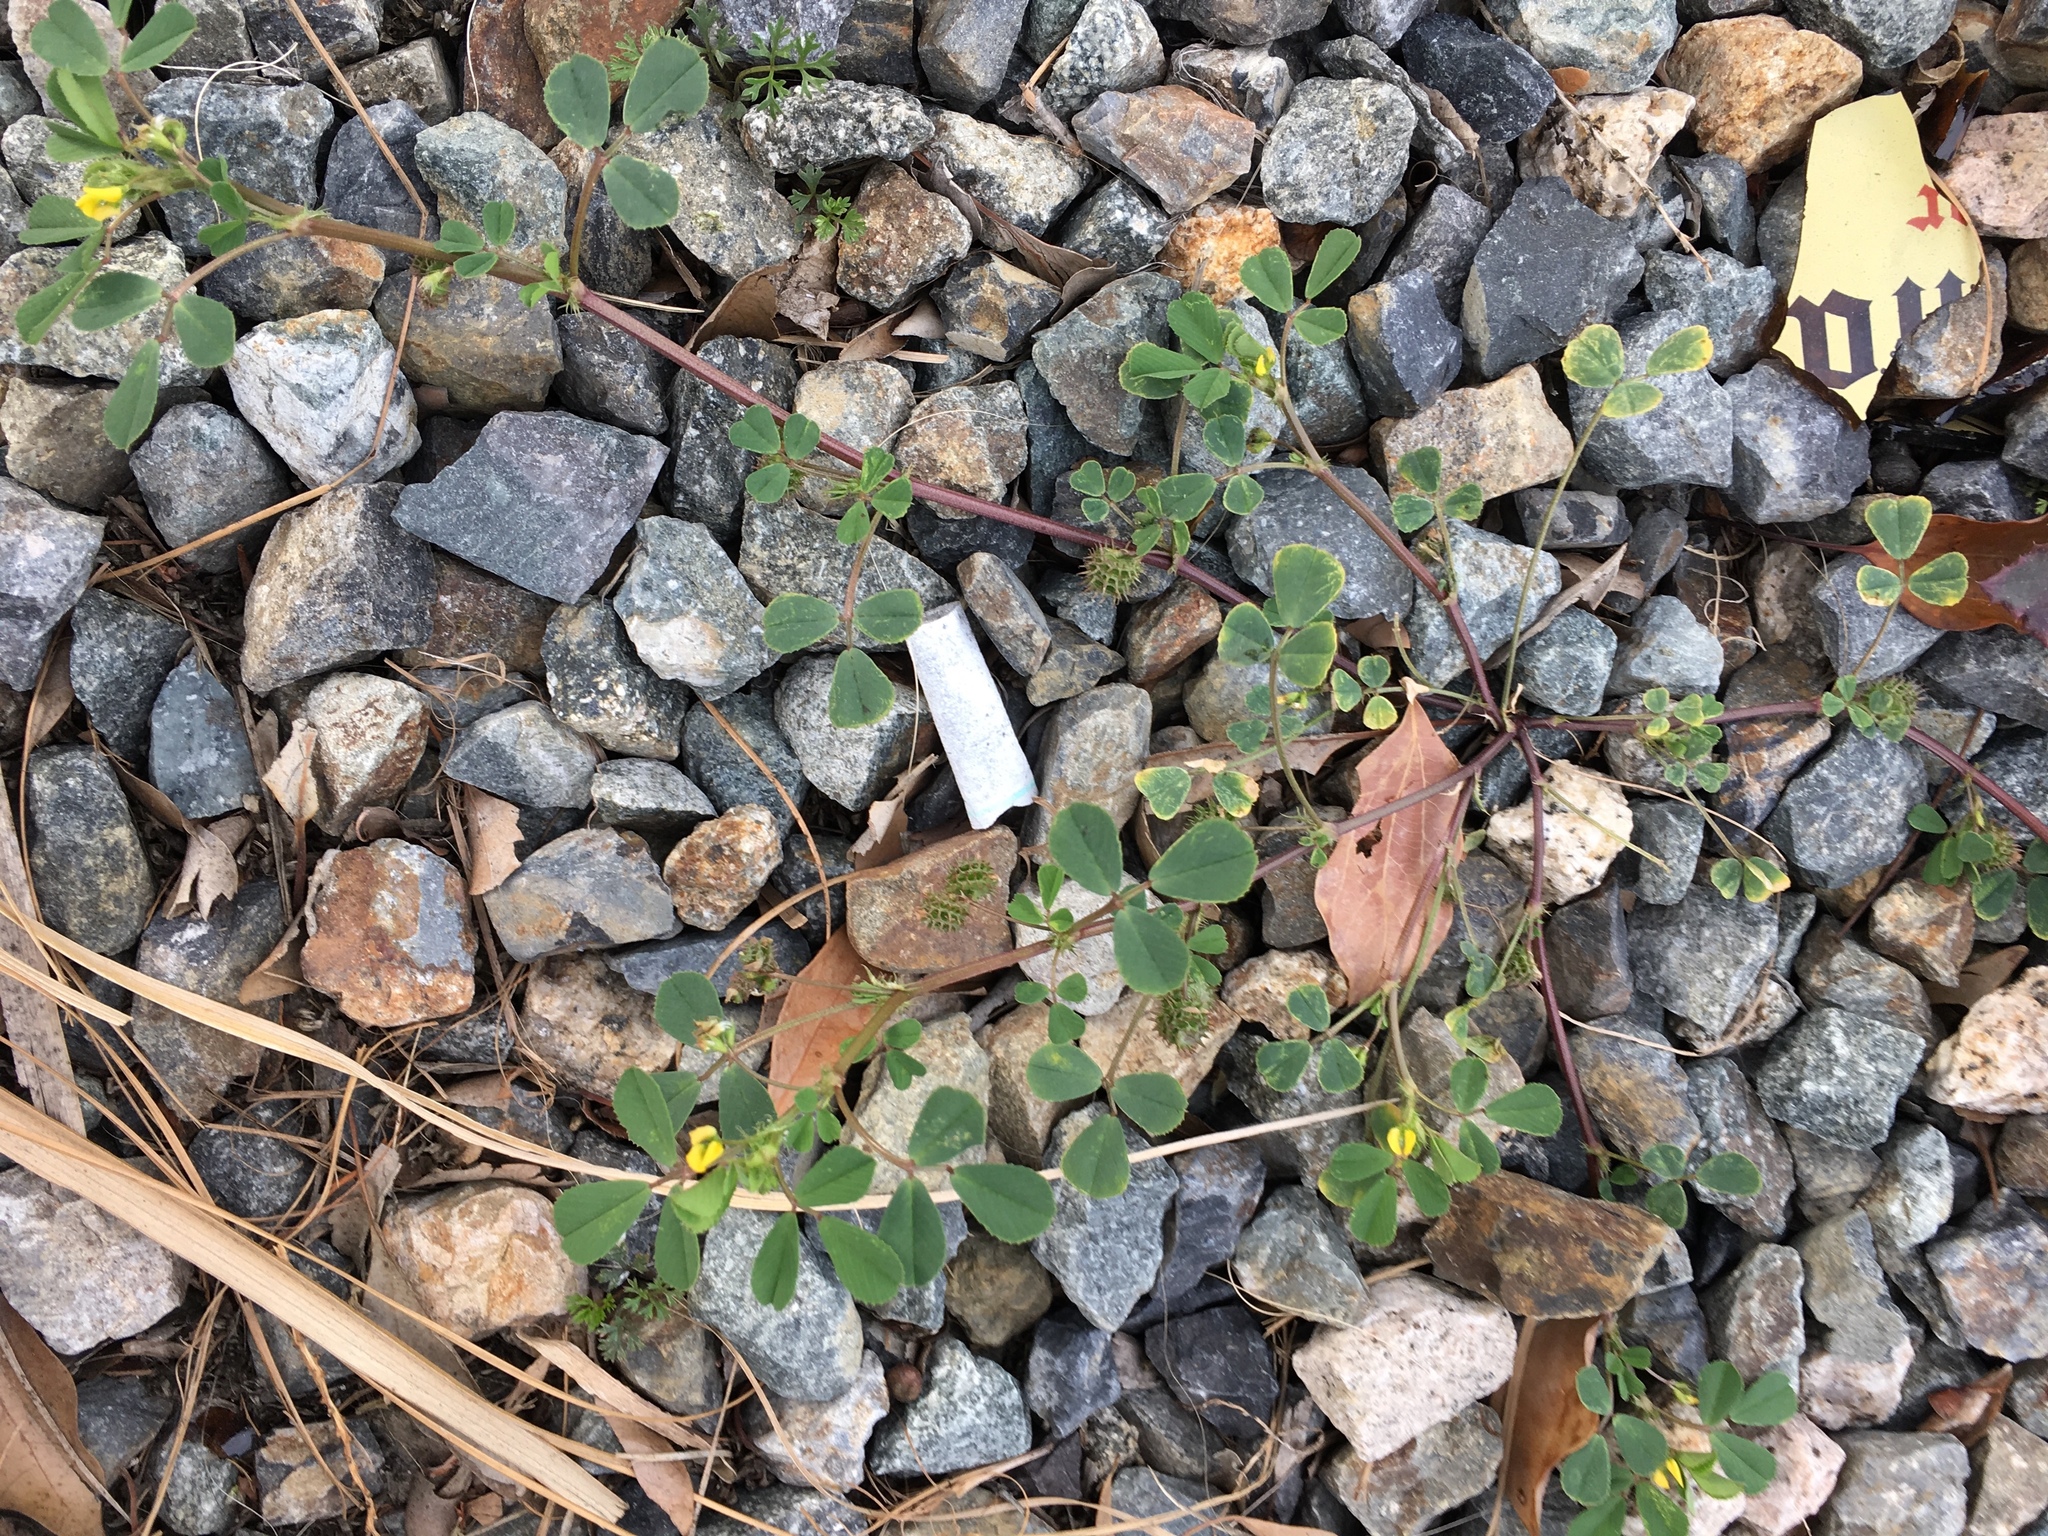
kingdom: Plantae
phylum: Tracheophyta
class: Magnoliopsida
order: Fabales
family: Fabaceae
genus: Medicago
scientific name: Medicago polymorpha
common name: Burclover
